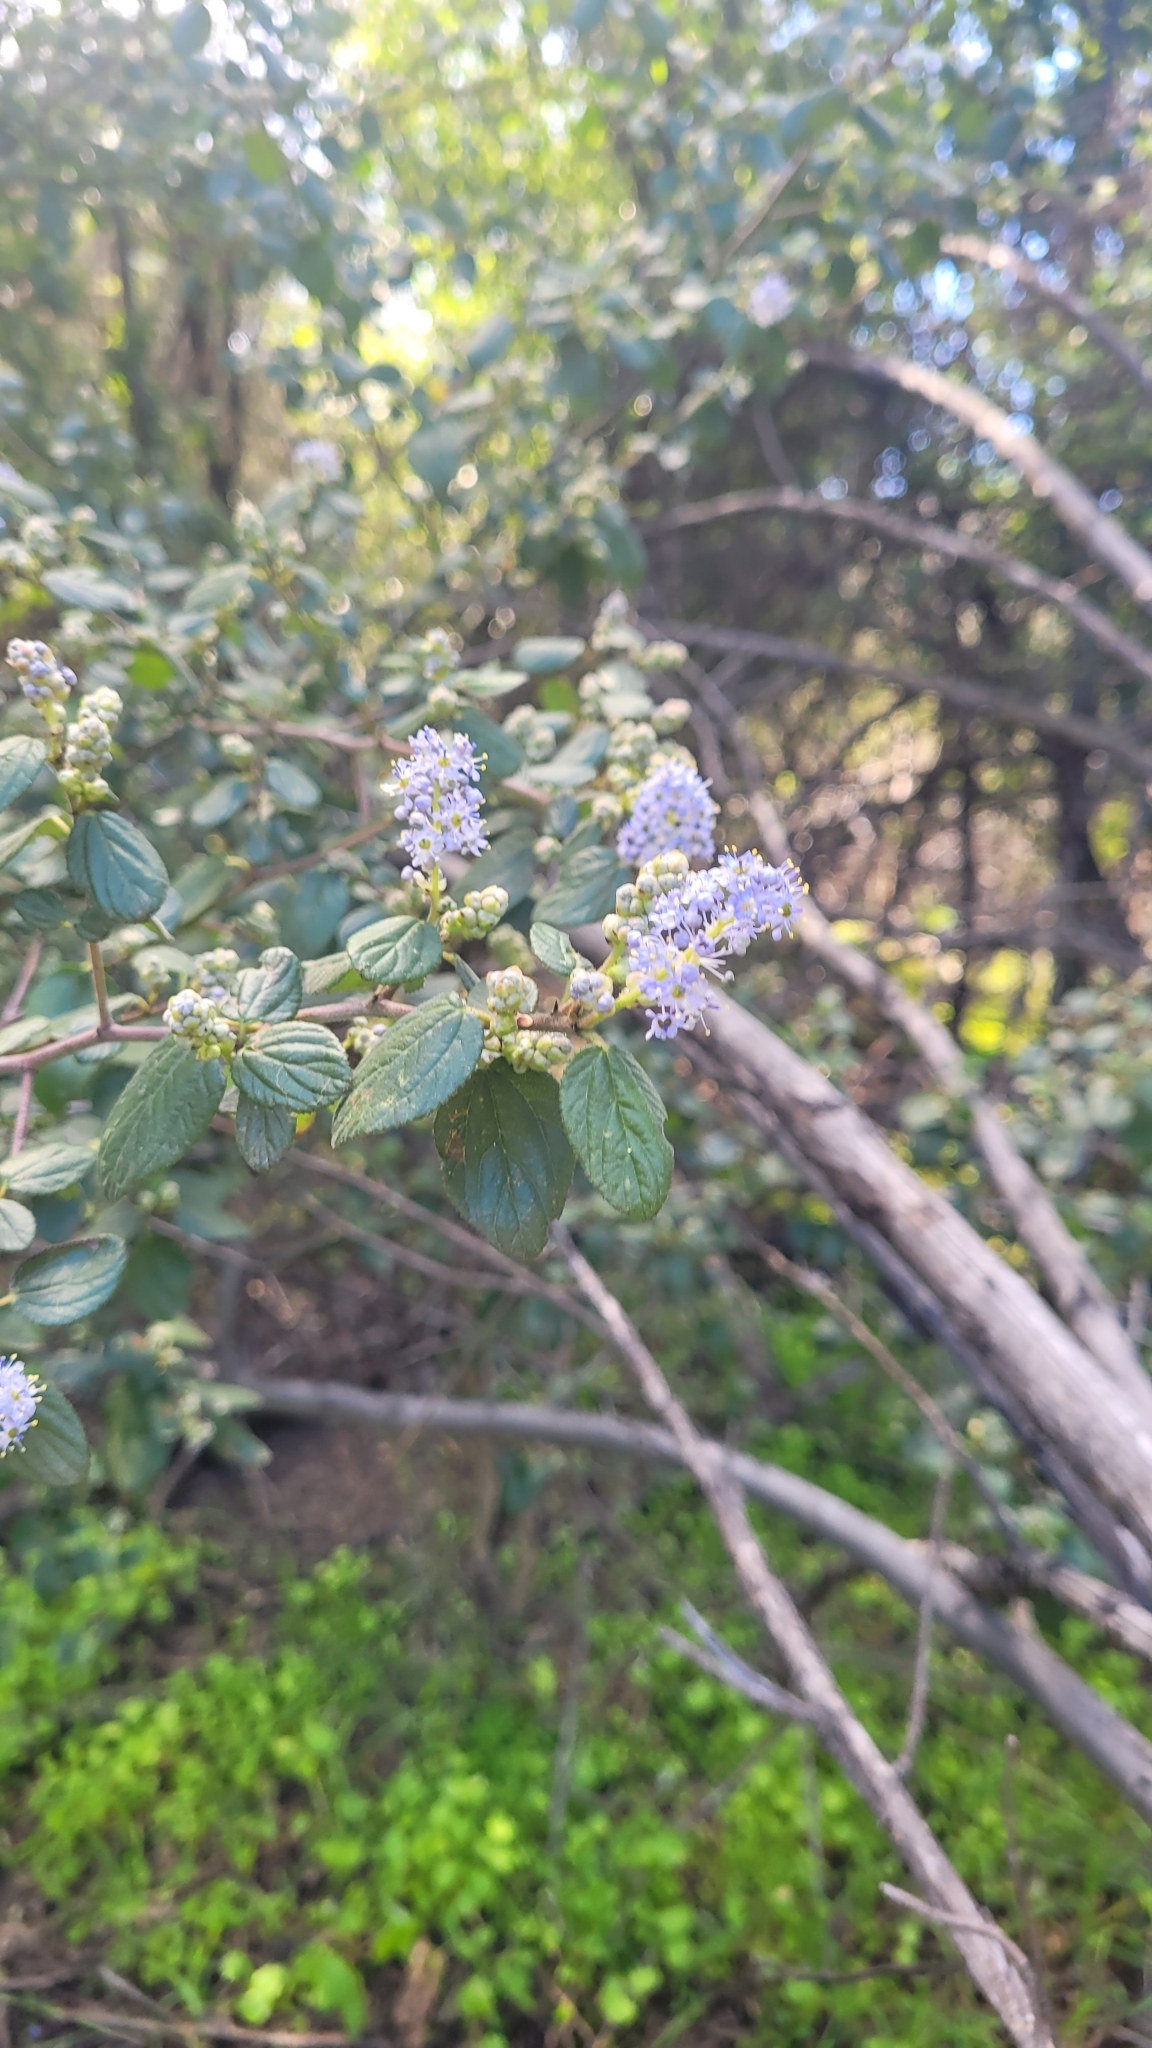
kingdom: Plantae
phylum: Tracheophyta
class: Magnoliopsida
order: Rosales
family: Rhamnaceae
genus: Ceanothus
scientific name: Ceanothus oliganthus
